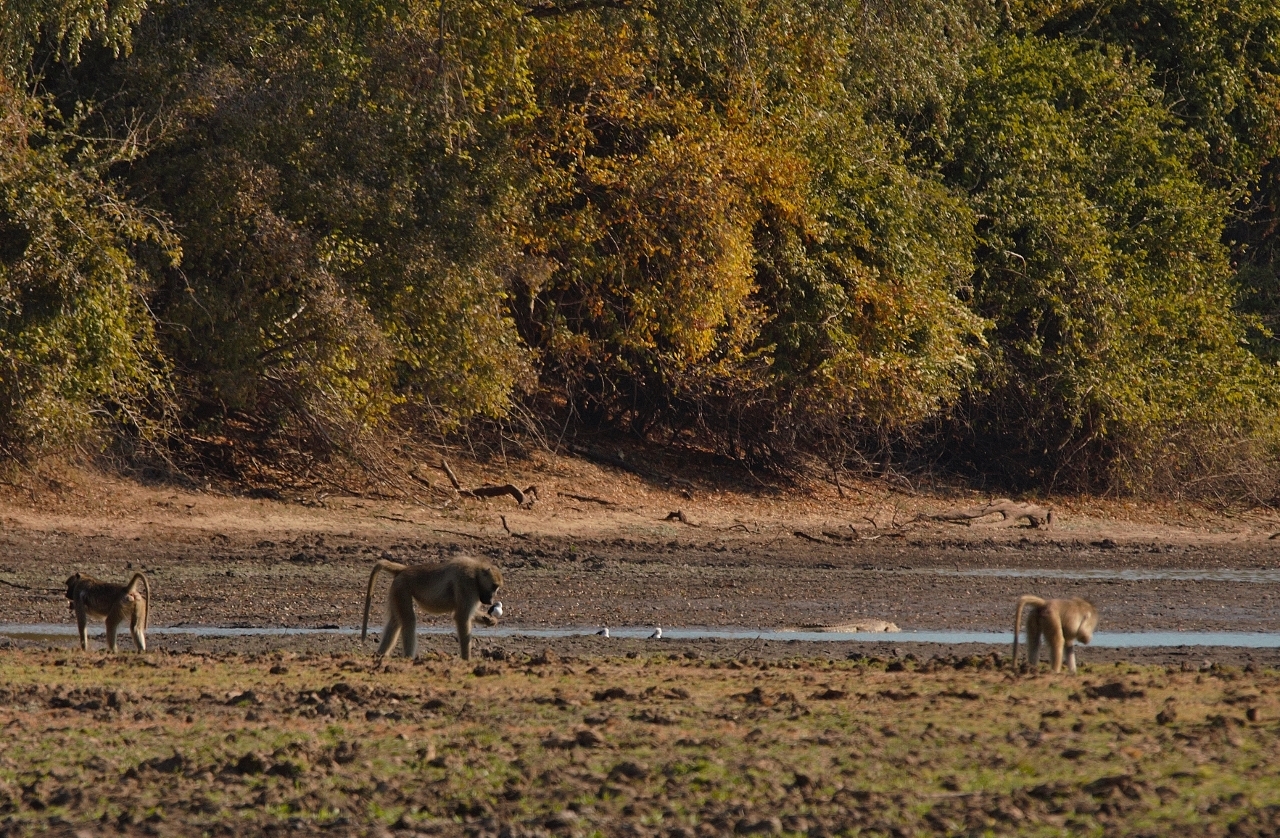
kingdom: Animalia
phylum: Chordata
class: Mammalia
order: Primates
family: Cercopithecidae
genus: Papio
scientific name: Papio ursinus
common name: Chacma baboon
